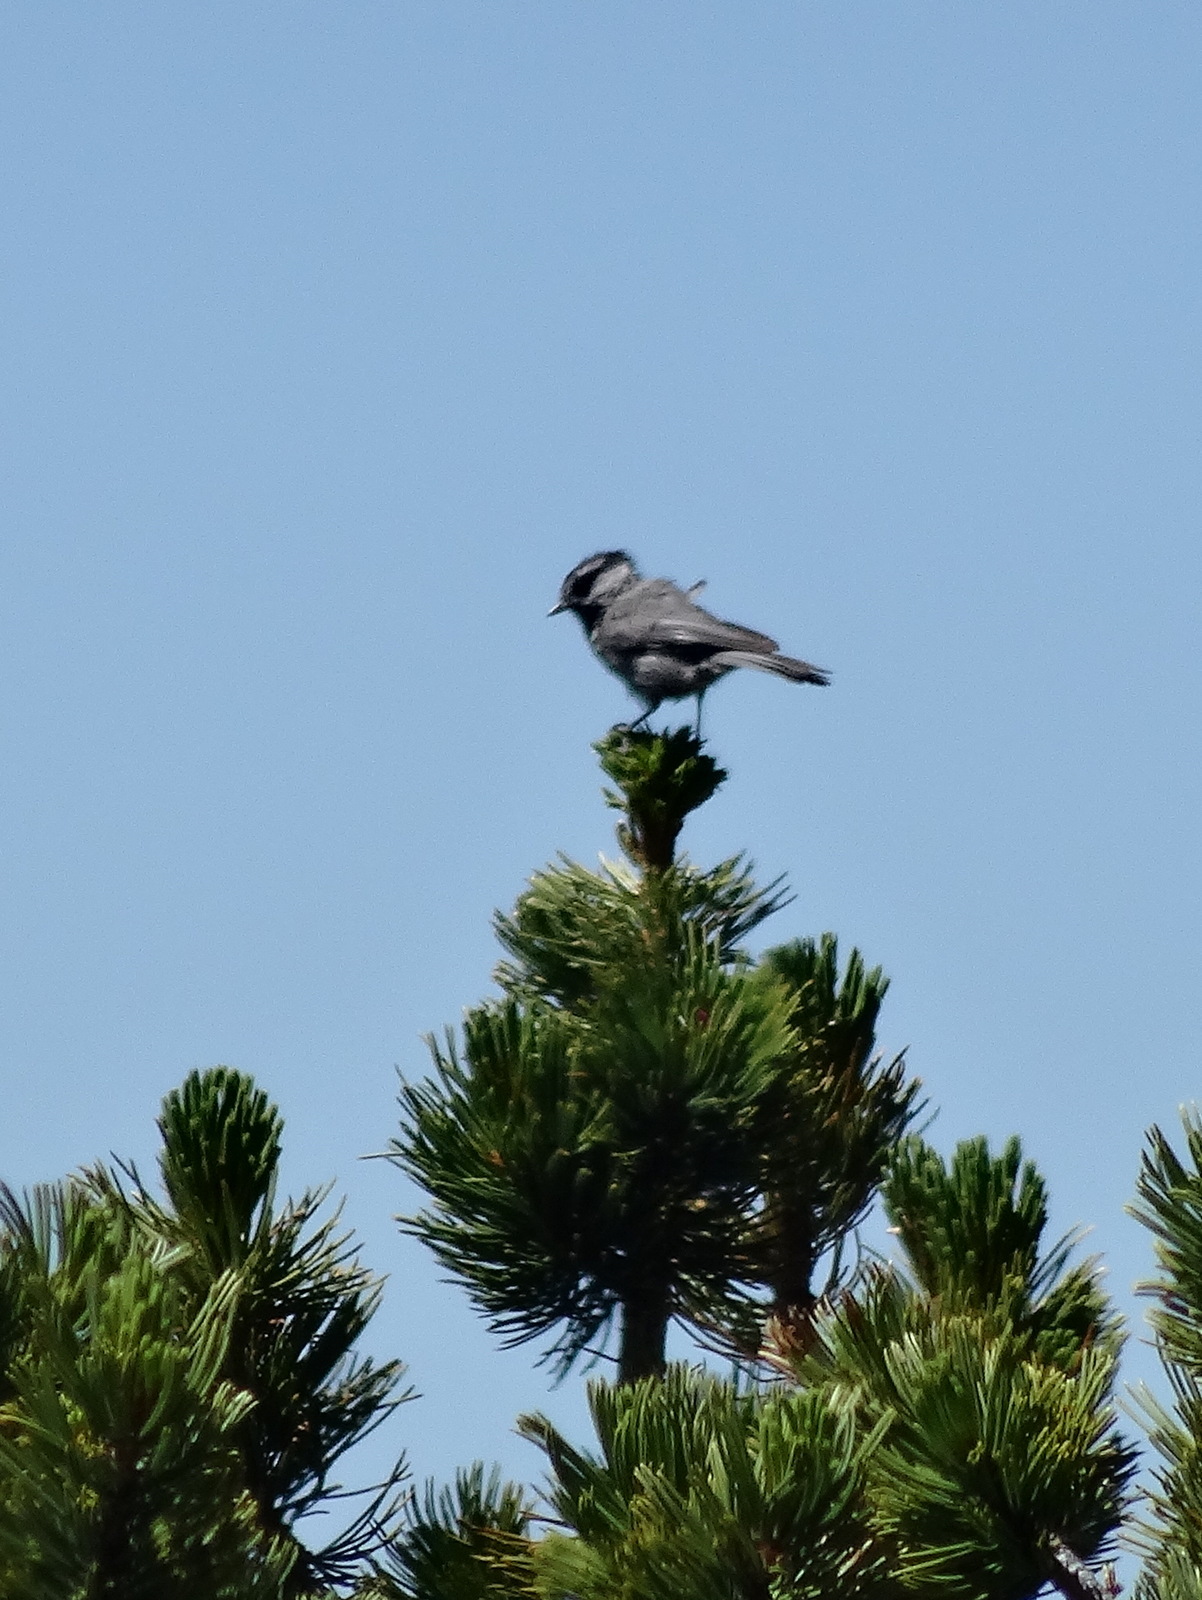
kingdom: Animalia
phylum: Chordata
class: Aves
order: Passeriformes
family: Paridae
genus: Poecile
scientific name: Poecile gambeli
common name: Mountain chickadee
